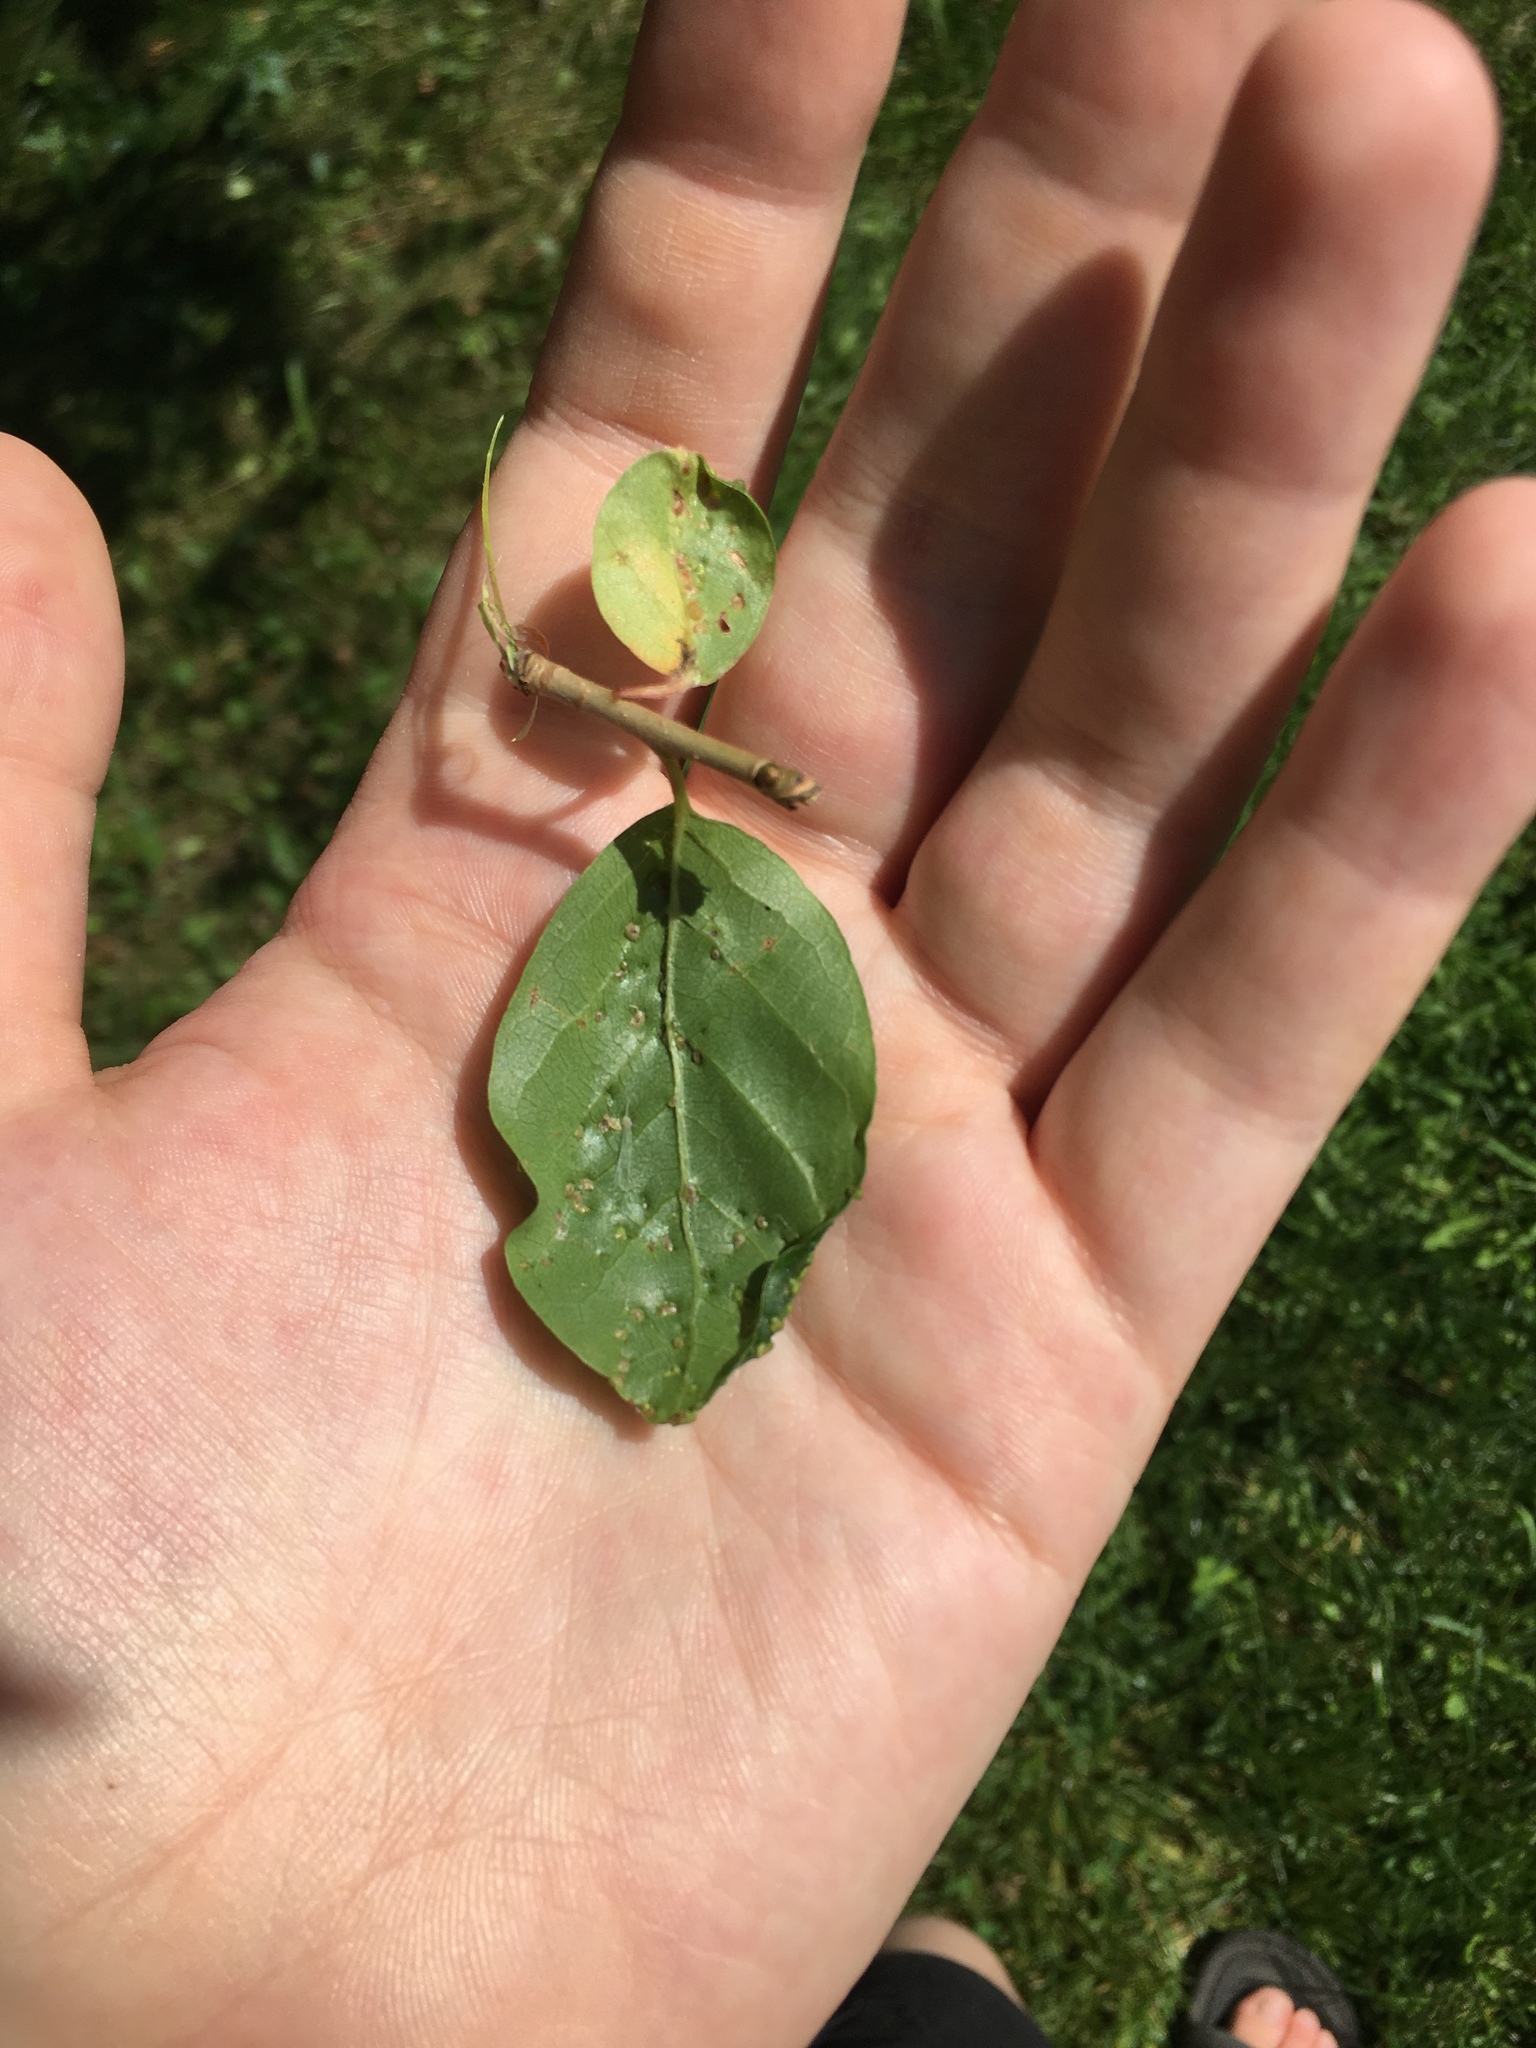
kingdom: Animalia
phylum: Arthropoda
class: Arachnida
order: Trombidiformes
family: Eriophyidae
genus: Aceria
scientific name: Aceria
